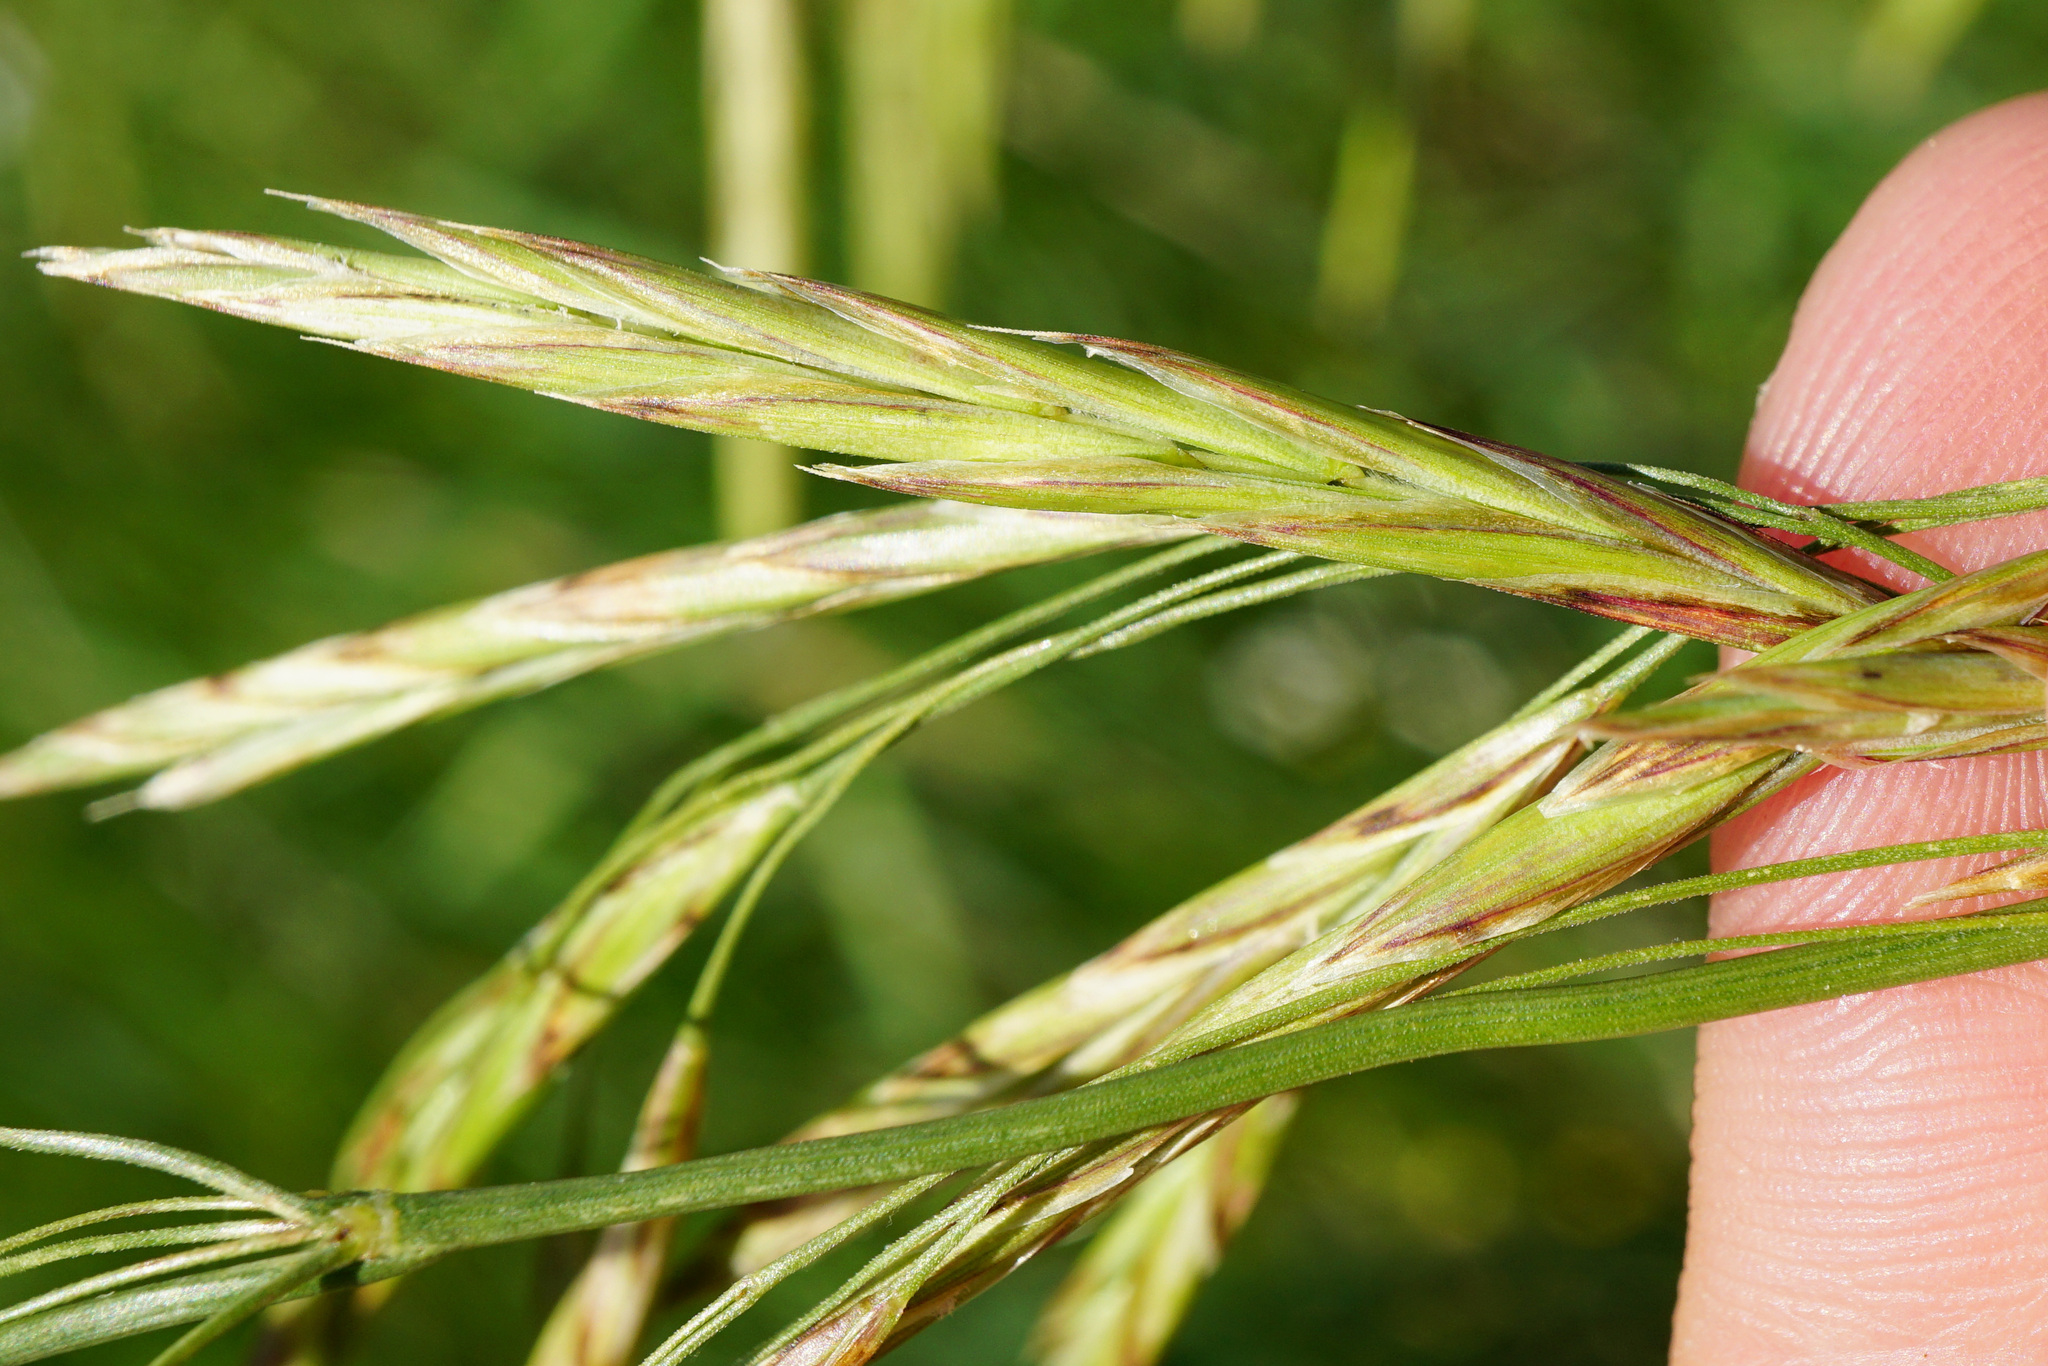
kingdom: Plantae
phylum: Tracheophyta
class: Liliopsida
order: Poales
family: Poaceae
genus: Bromus
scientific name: Bromus inermis
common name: Smooth brome
